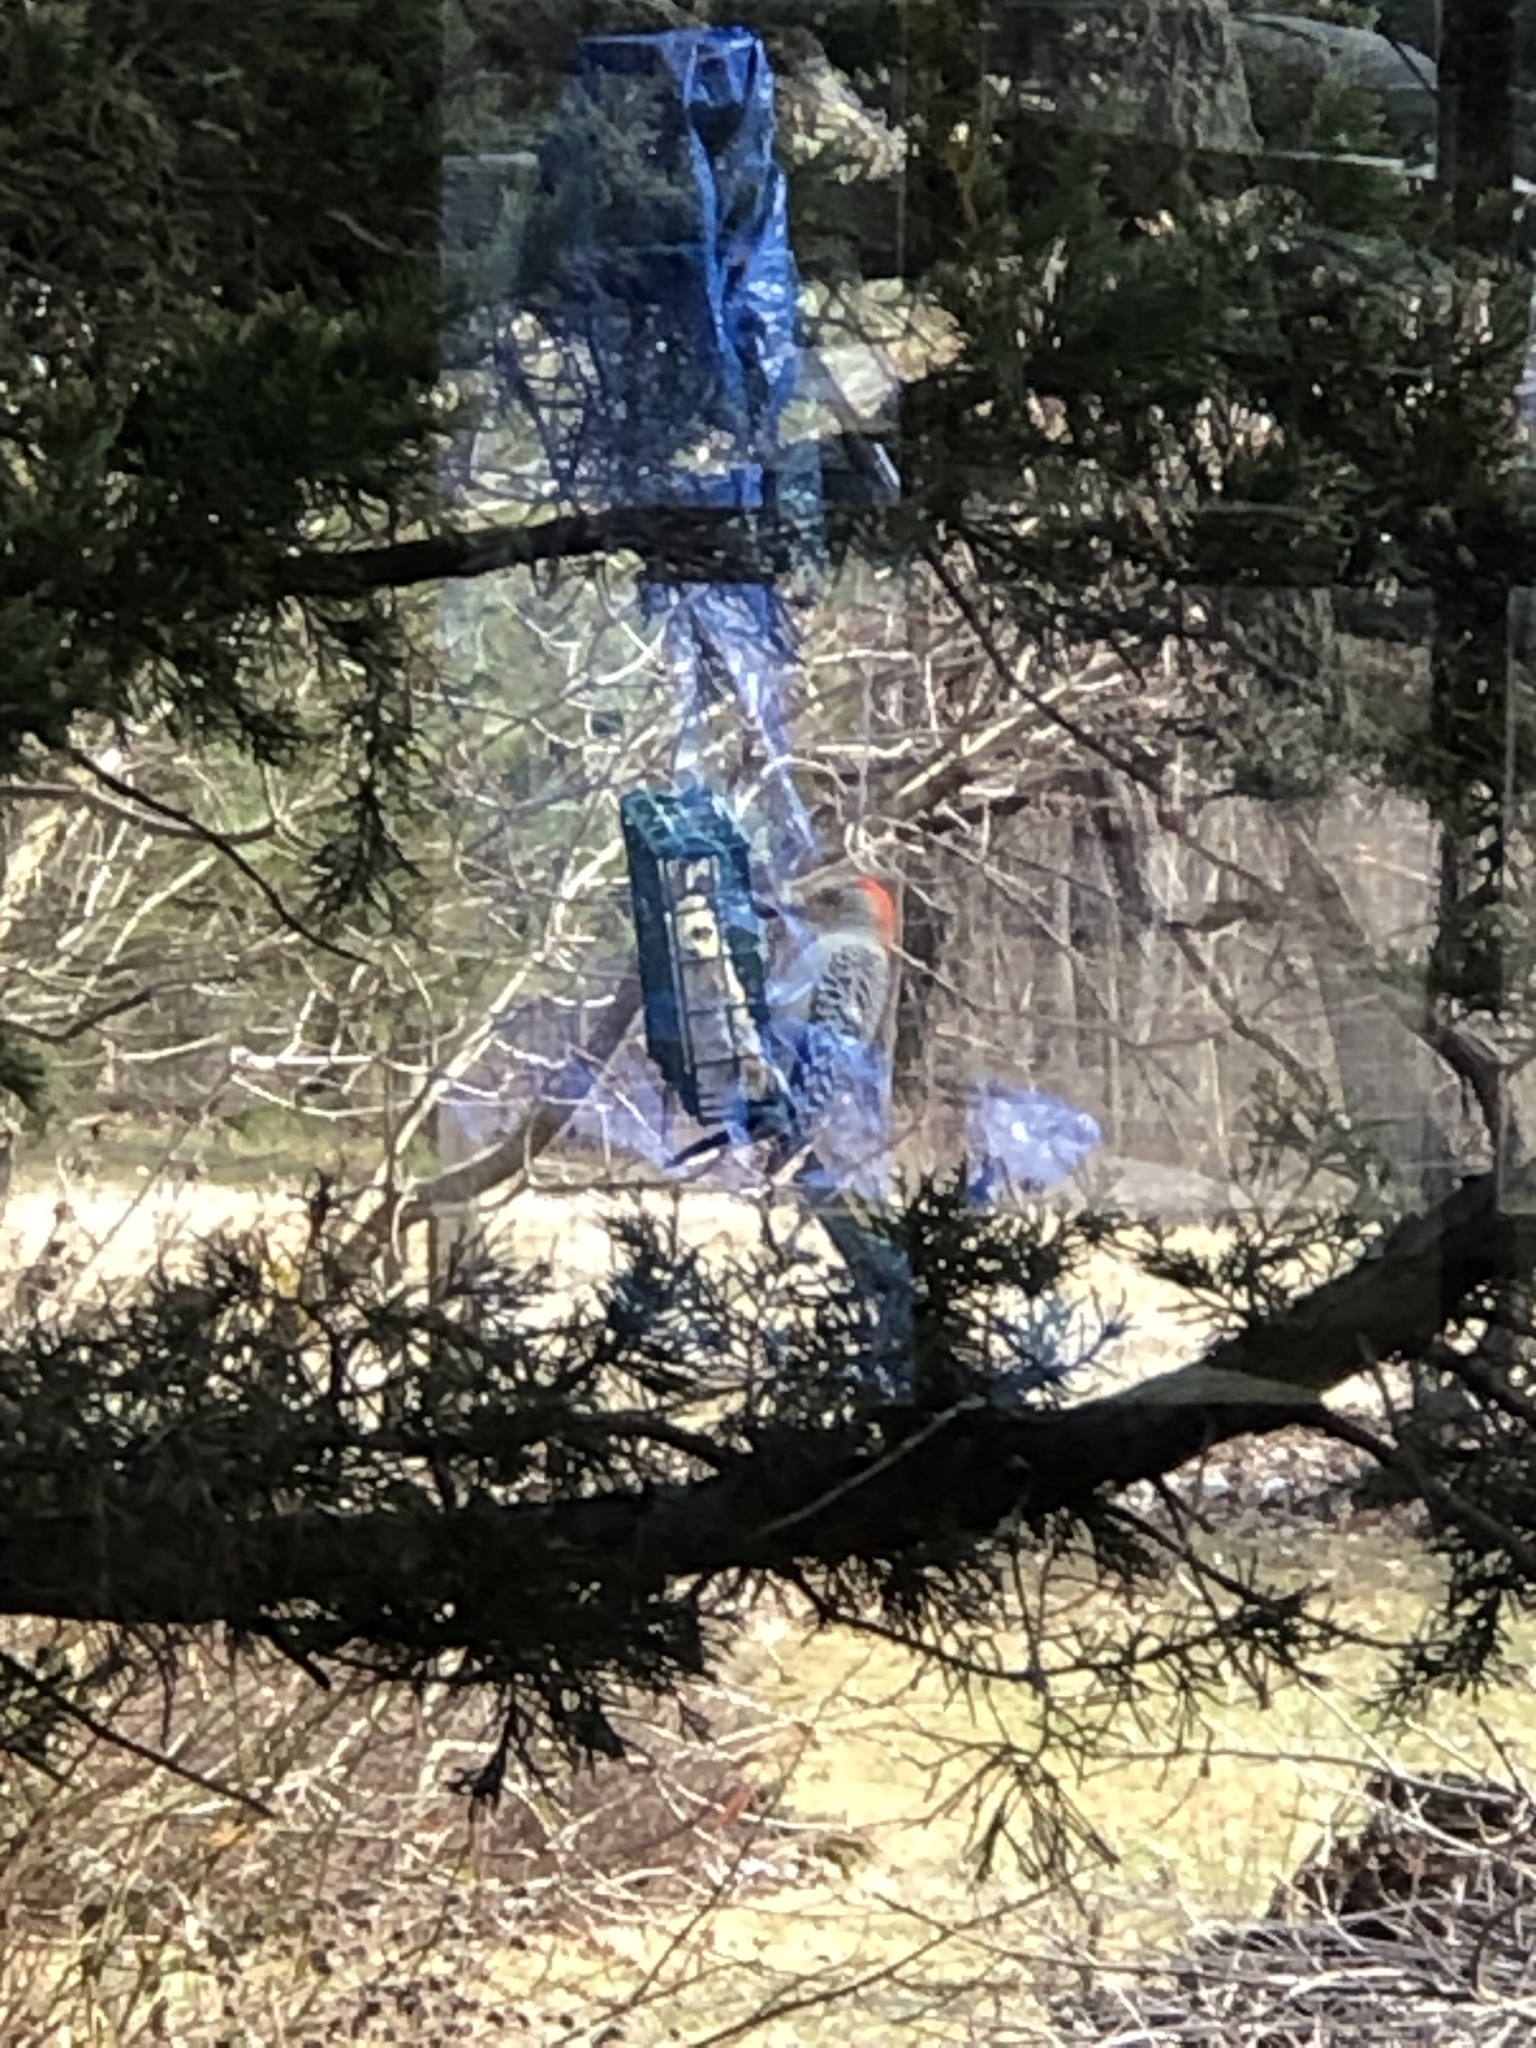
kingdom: Animalia
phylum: Chordata
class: Aves
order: Piciformes
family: Picidae
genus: Melanerpes
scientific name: Melanerpes carolinus
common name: Red-bellied woodpecker
